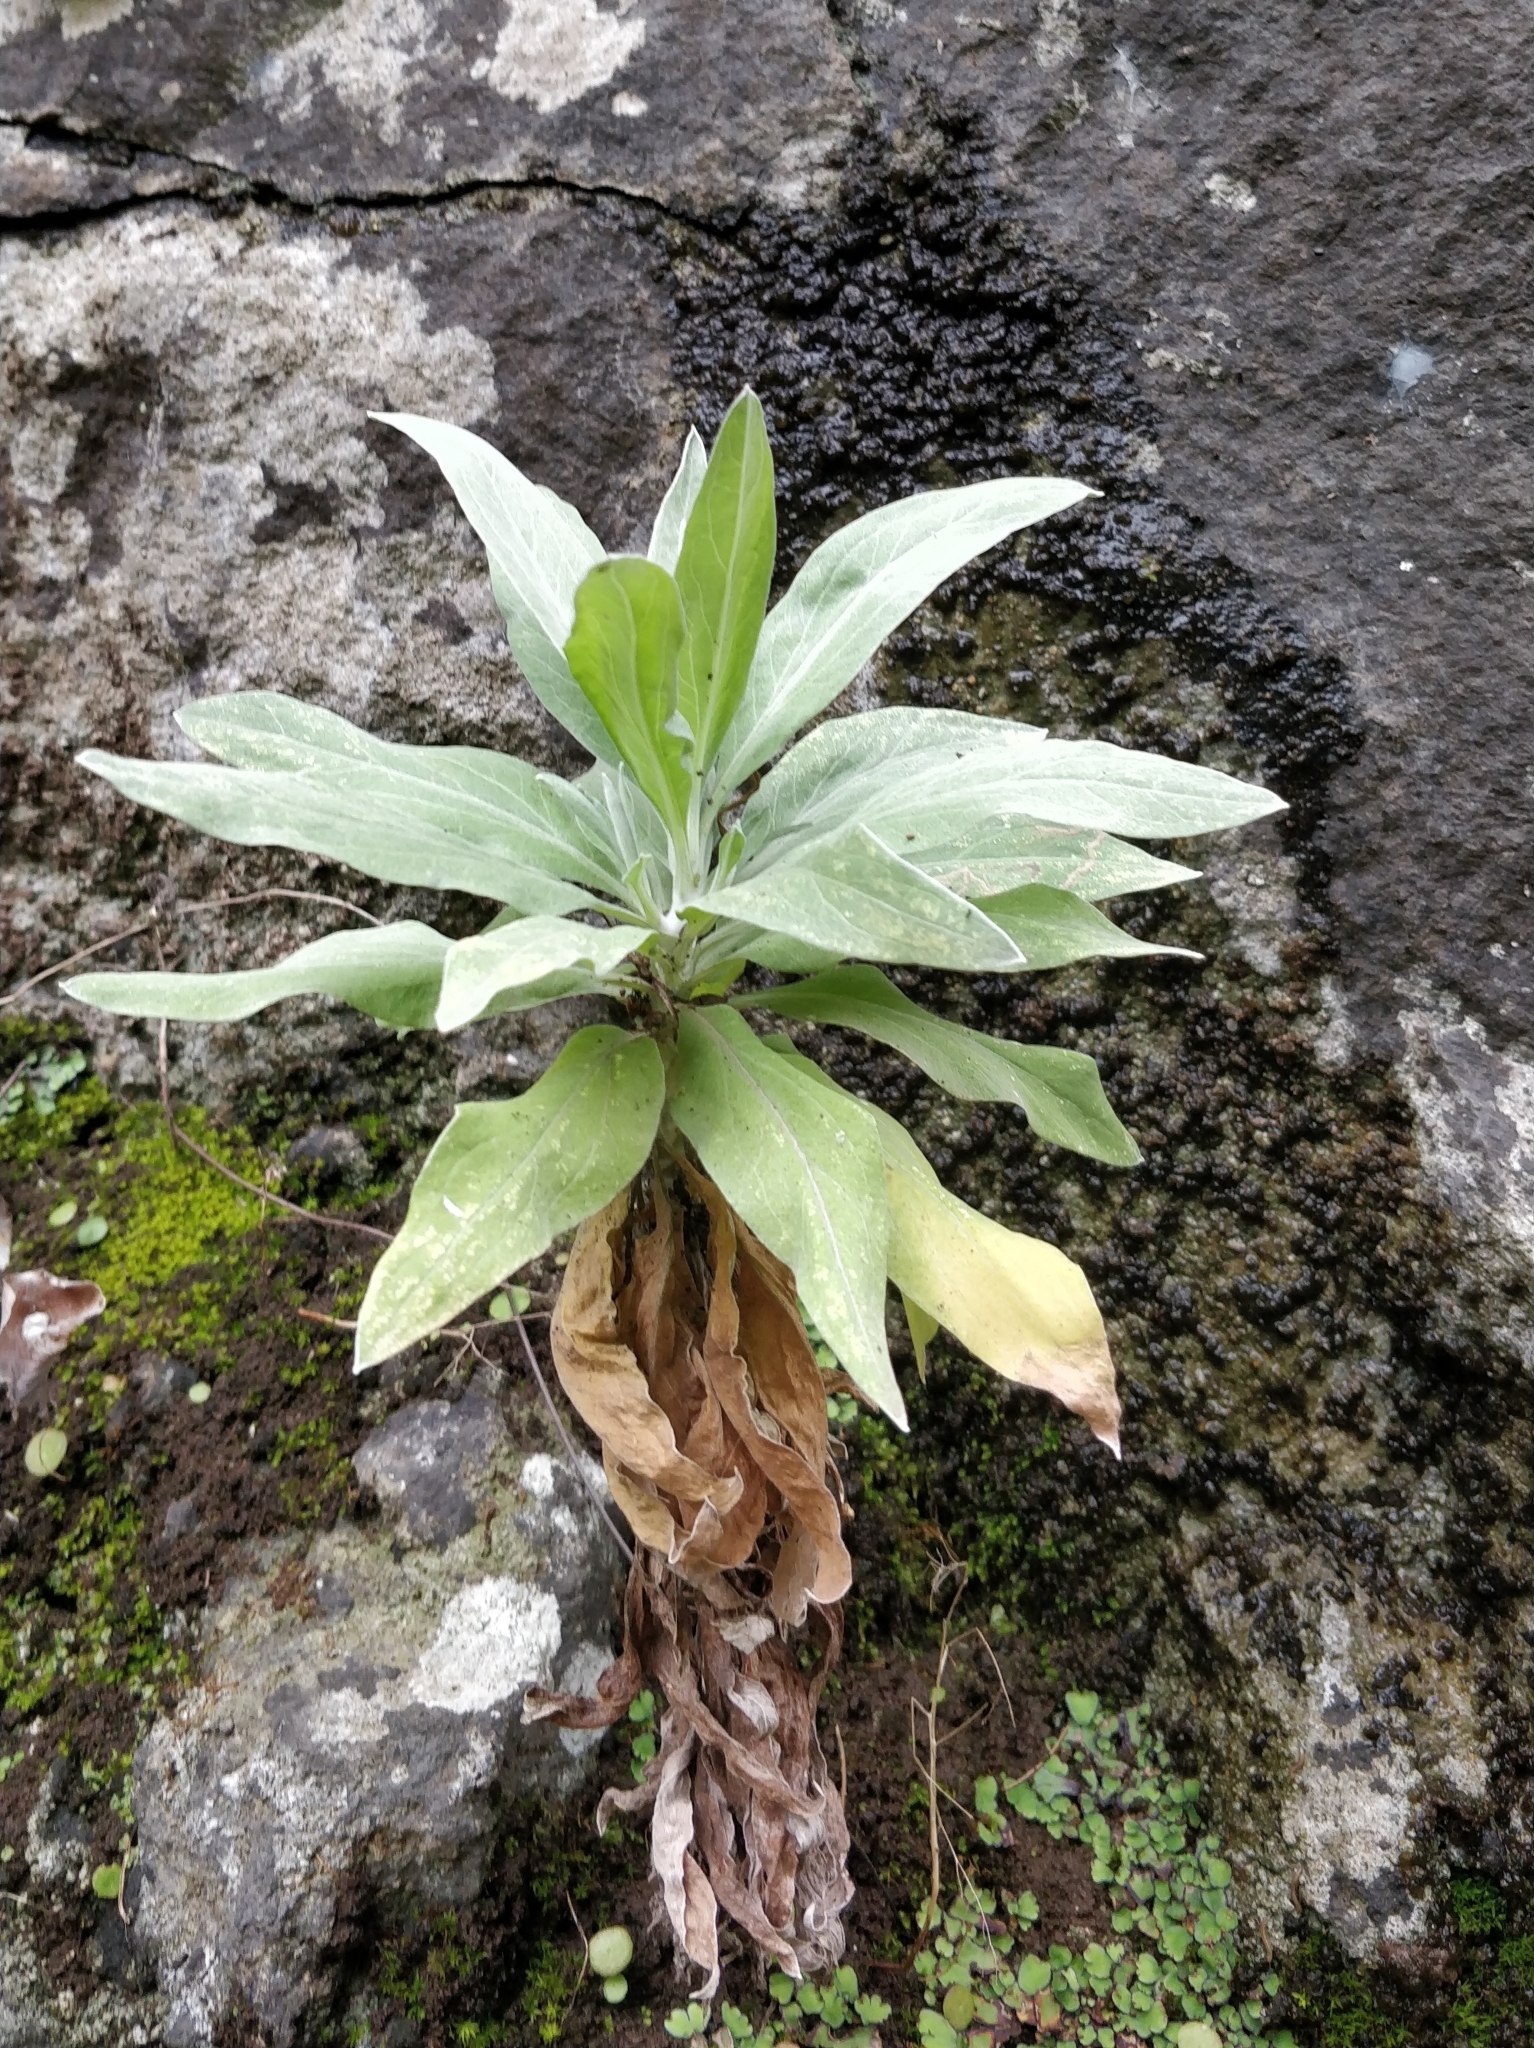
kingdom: Plantae
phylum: Tracheophyta
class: Magnoliopsida
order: Asterales
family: Asteraceae
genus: Helichrysum
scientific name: Helichrysum melaleucum
